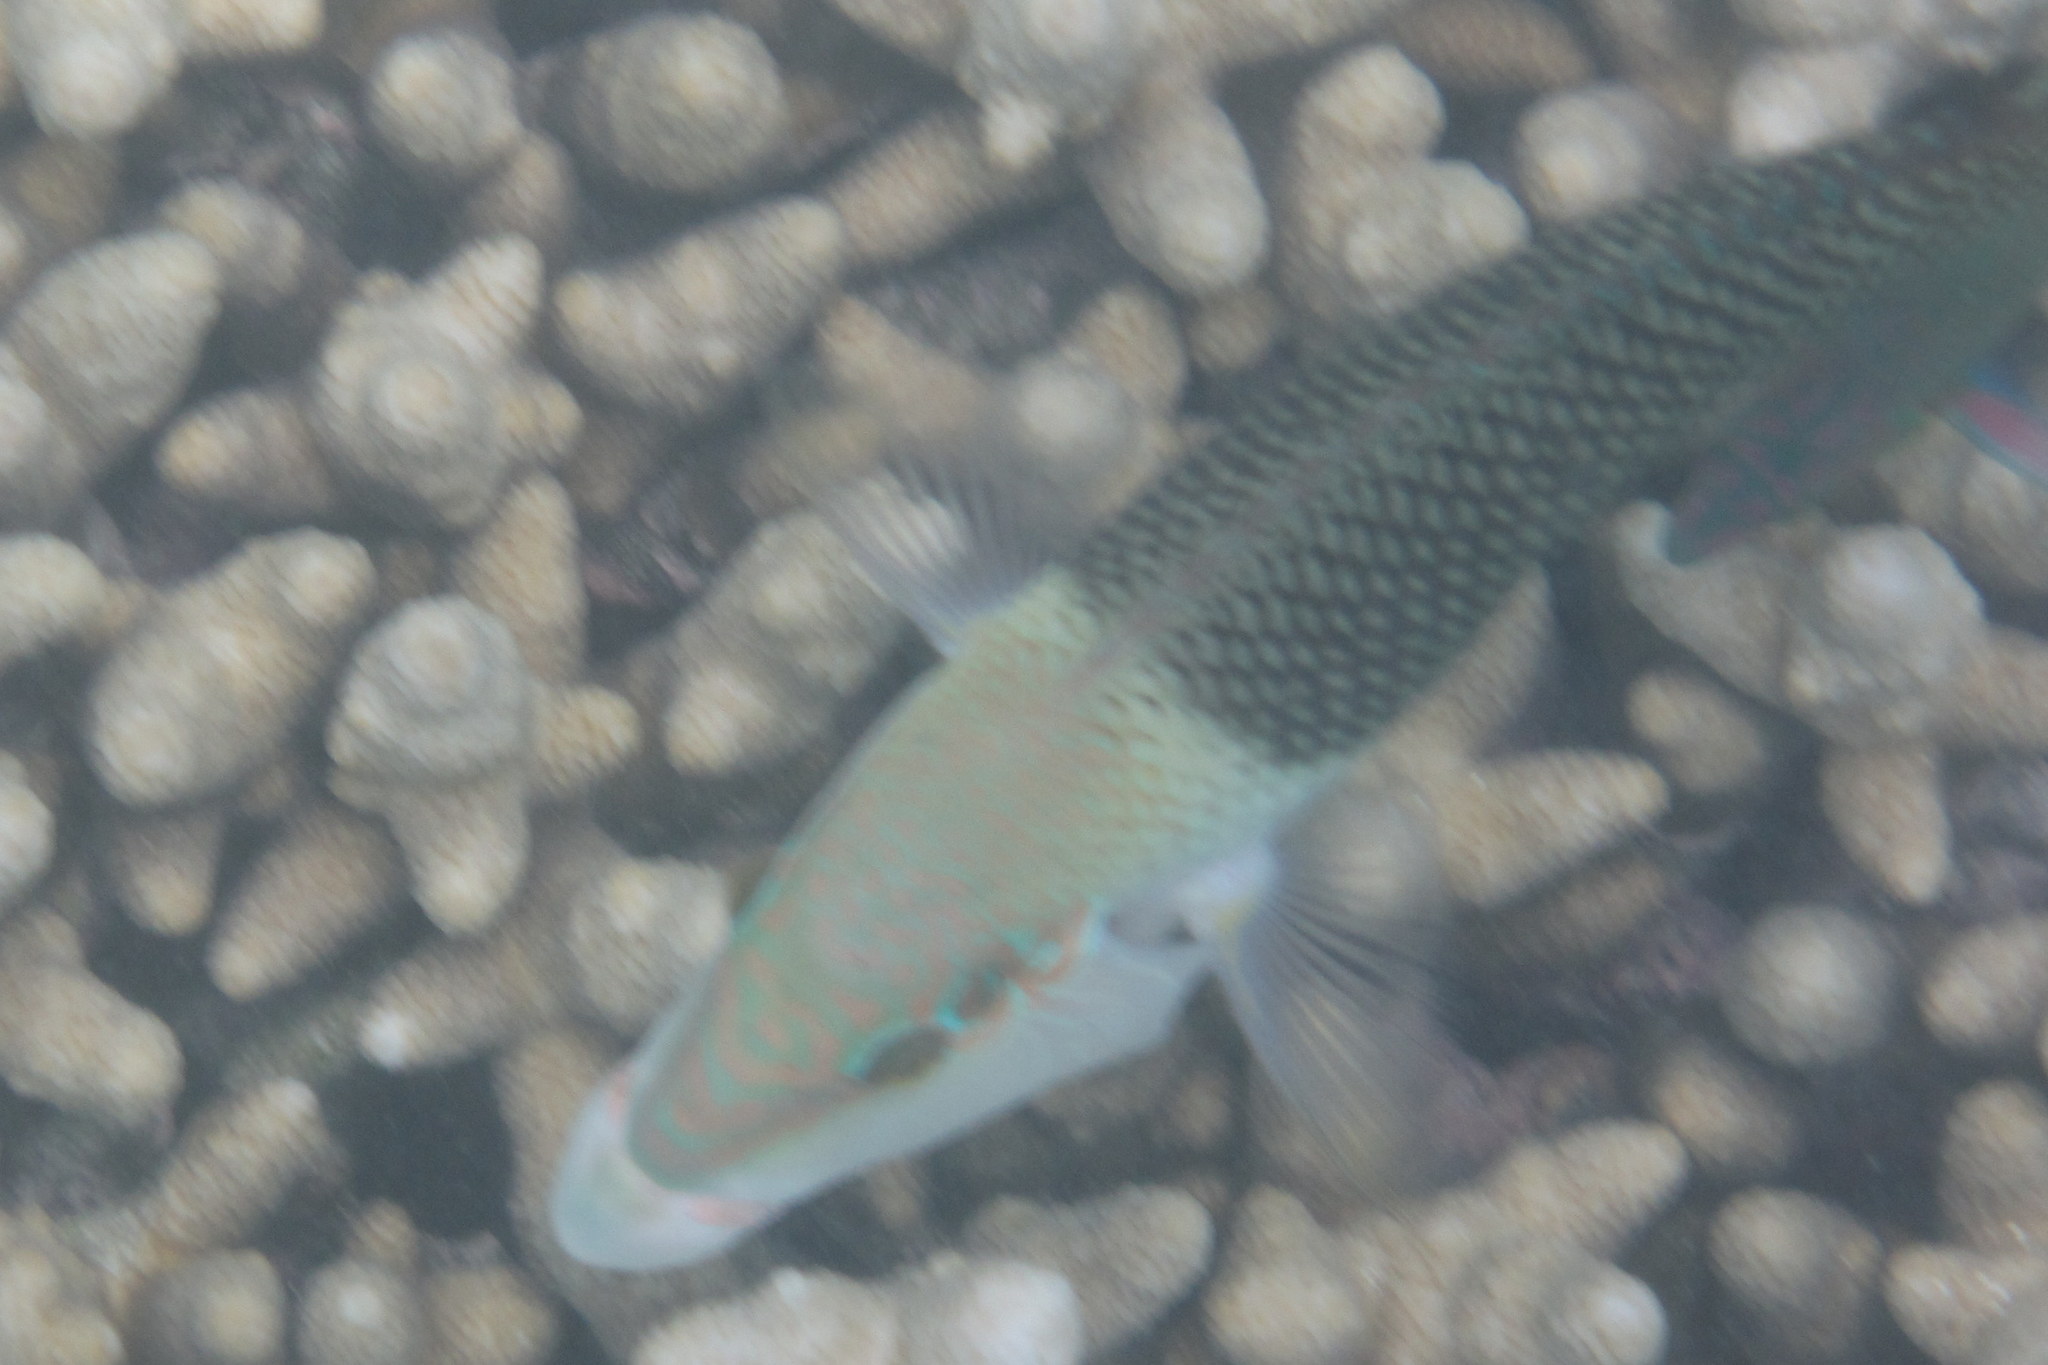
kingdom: Animalia
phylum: Chordata
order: Perciformes
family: Labridae
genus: Hemigymnus
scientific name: Hemigymnus melapterus
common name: Blackeye thicklip
